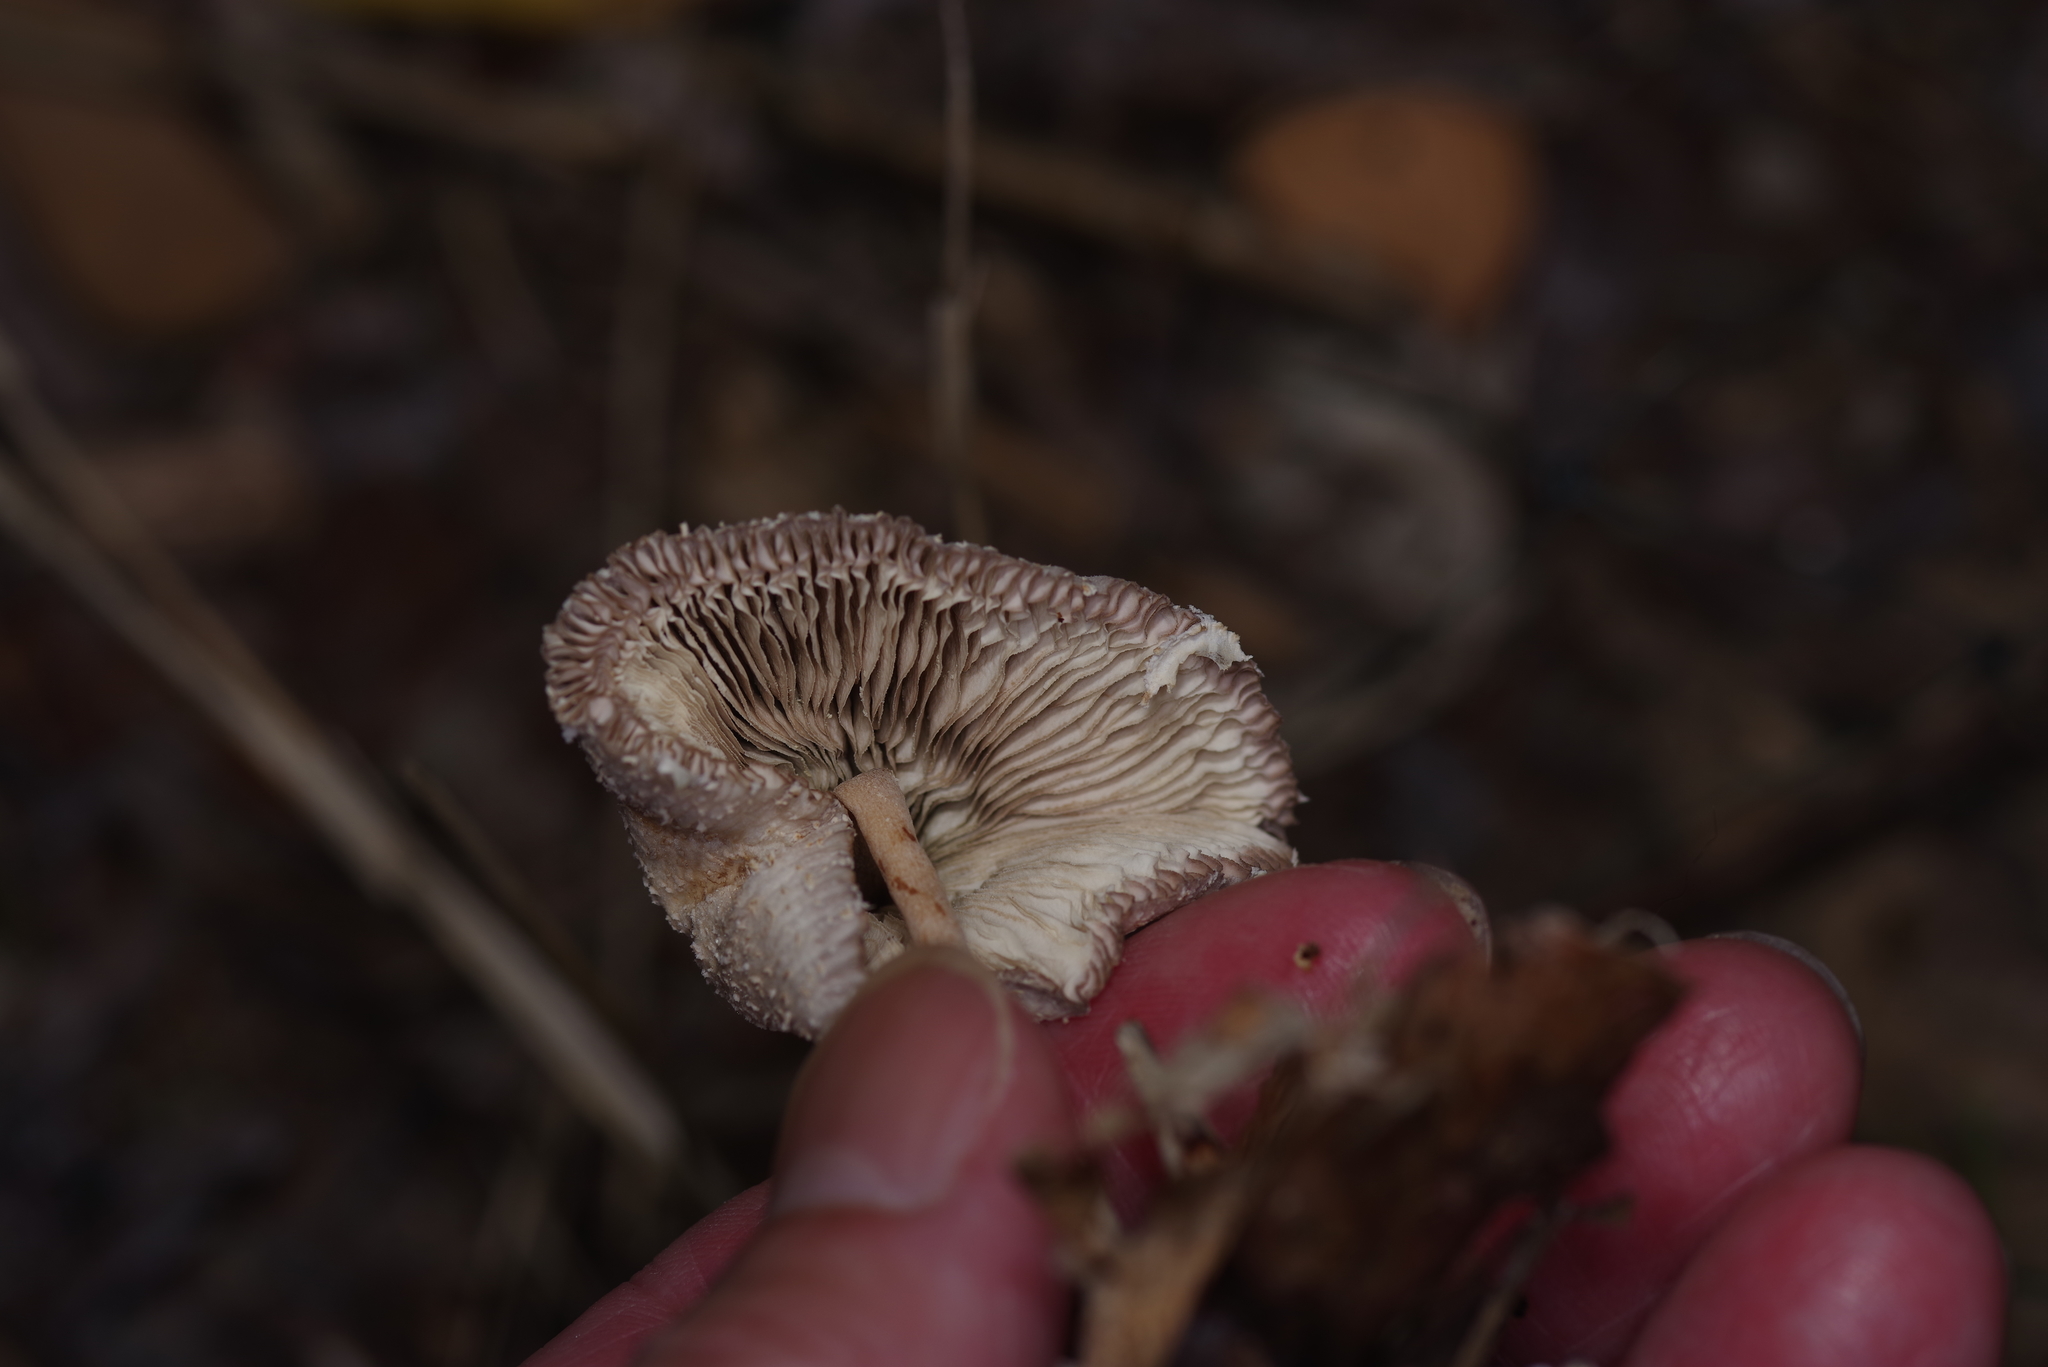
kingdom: Fungi
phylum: Basidiomycota
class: Agaricomycetes
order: Agaricales
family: Agaricaceae
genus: Leucocoprinus
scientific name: Leucocoprinus cepistipes
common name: Onion-stalk parasol
